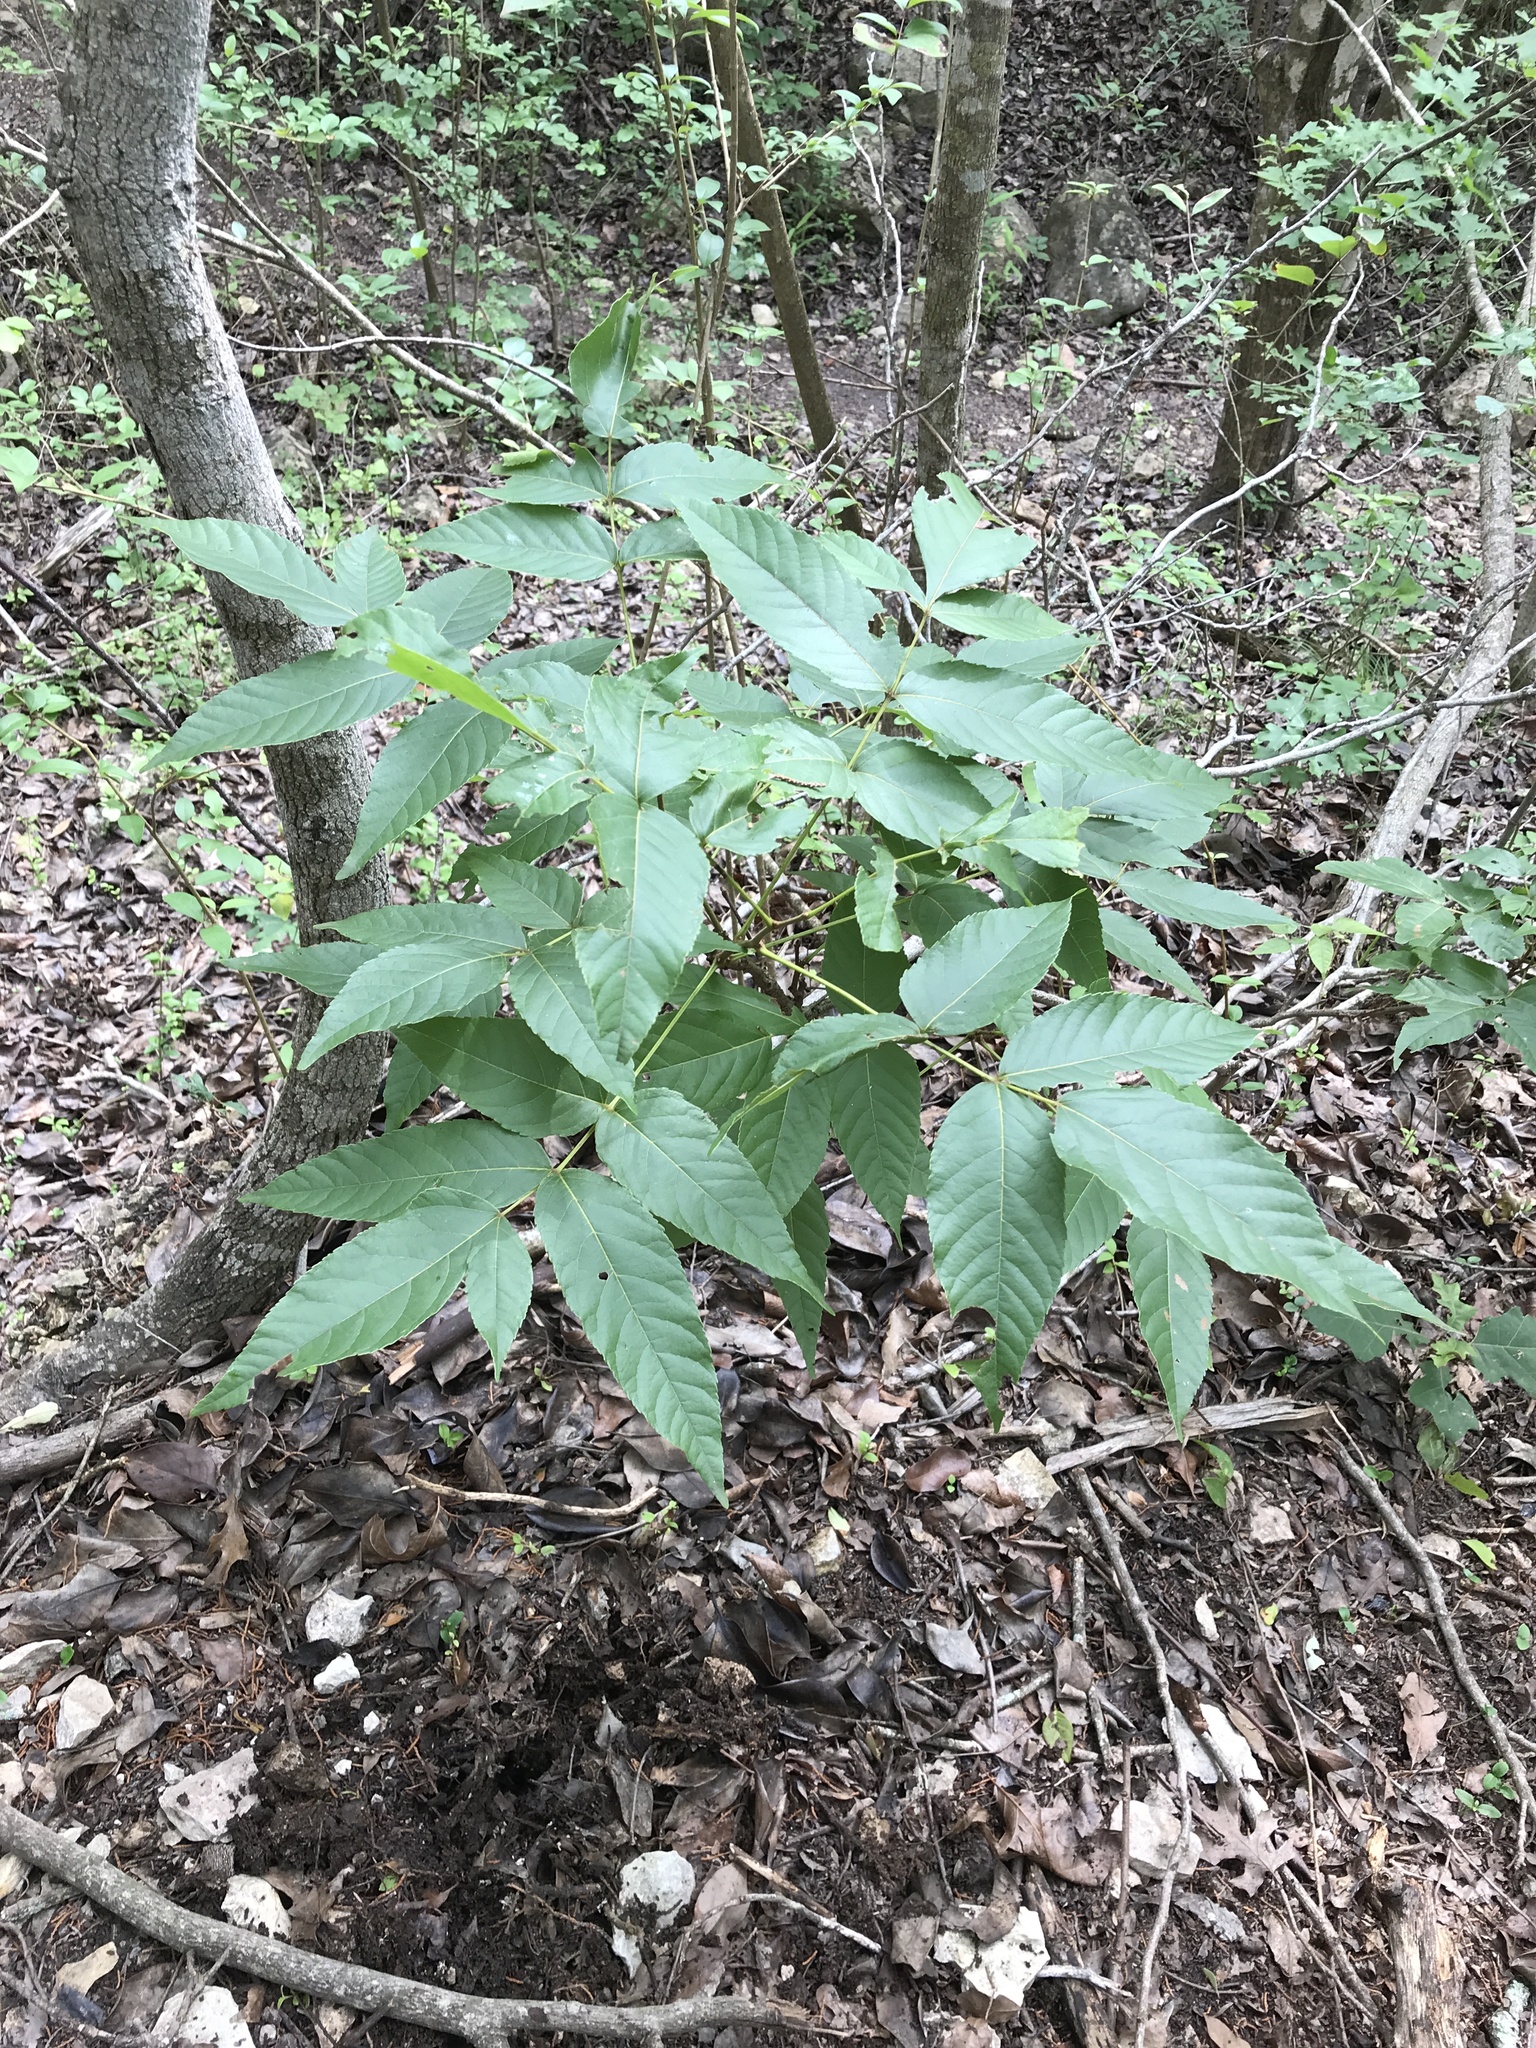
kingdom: Plantae
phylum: Tracheophyta
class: Magnoliopsida
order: Sapindales
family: Sapindaceae
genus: Ungnadia
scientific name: Ungnadia speciosa
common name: Texas-buckeye
